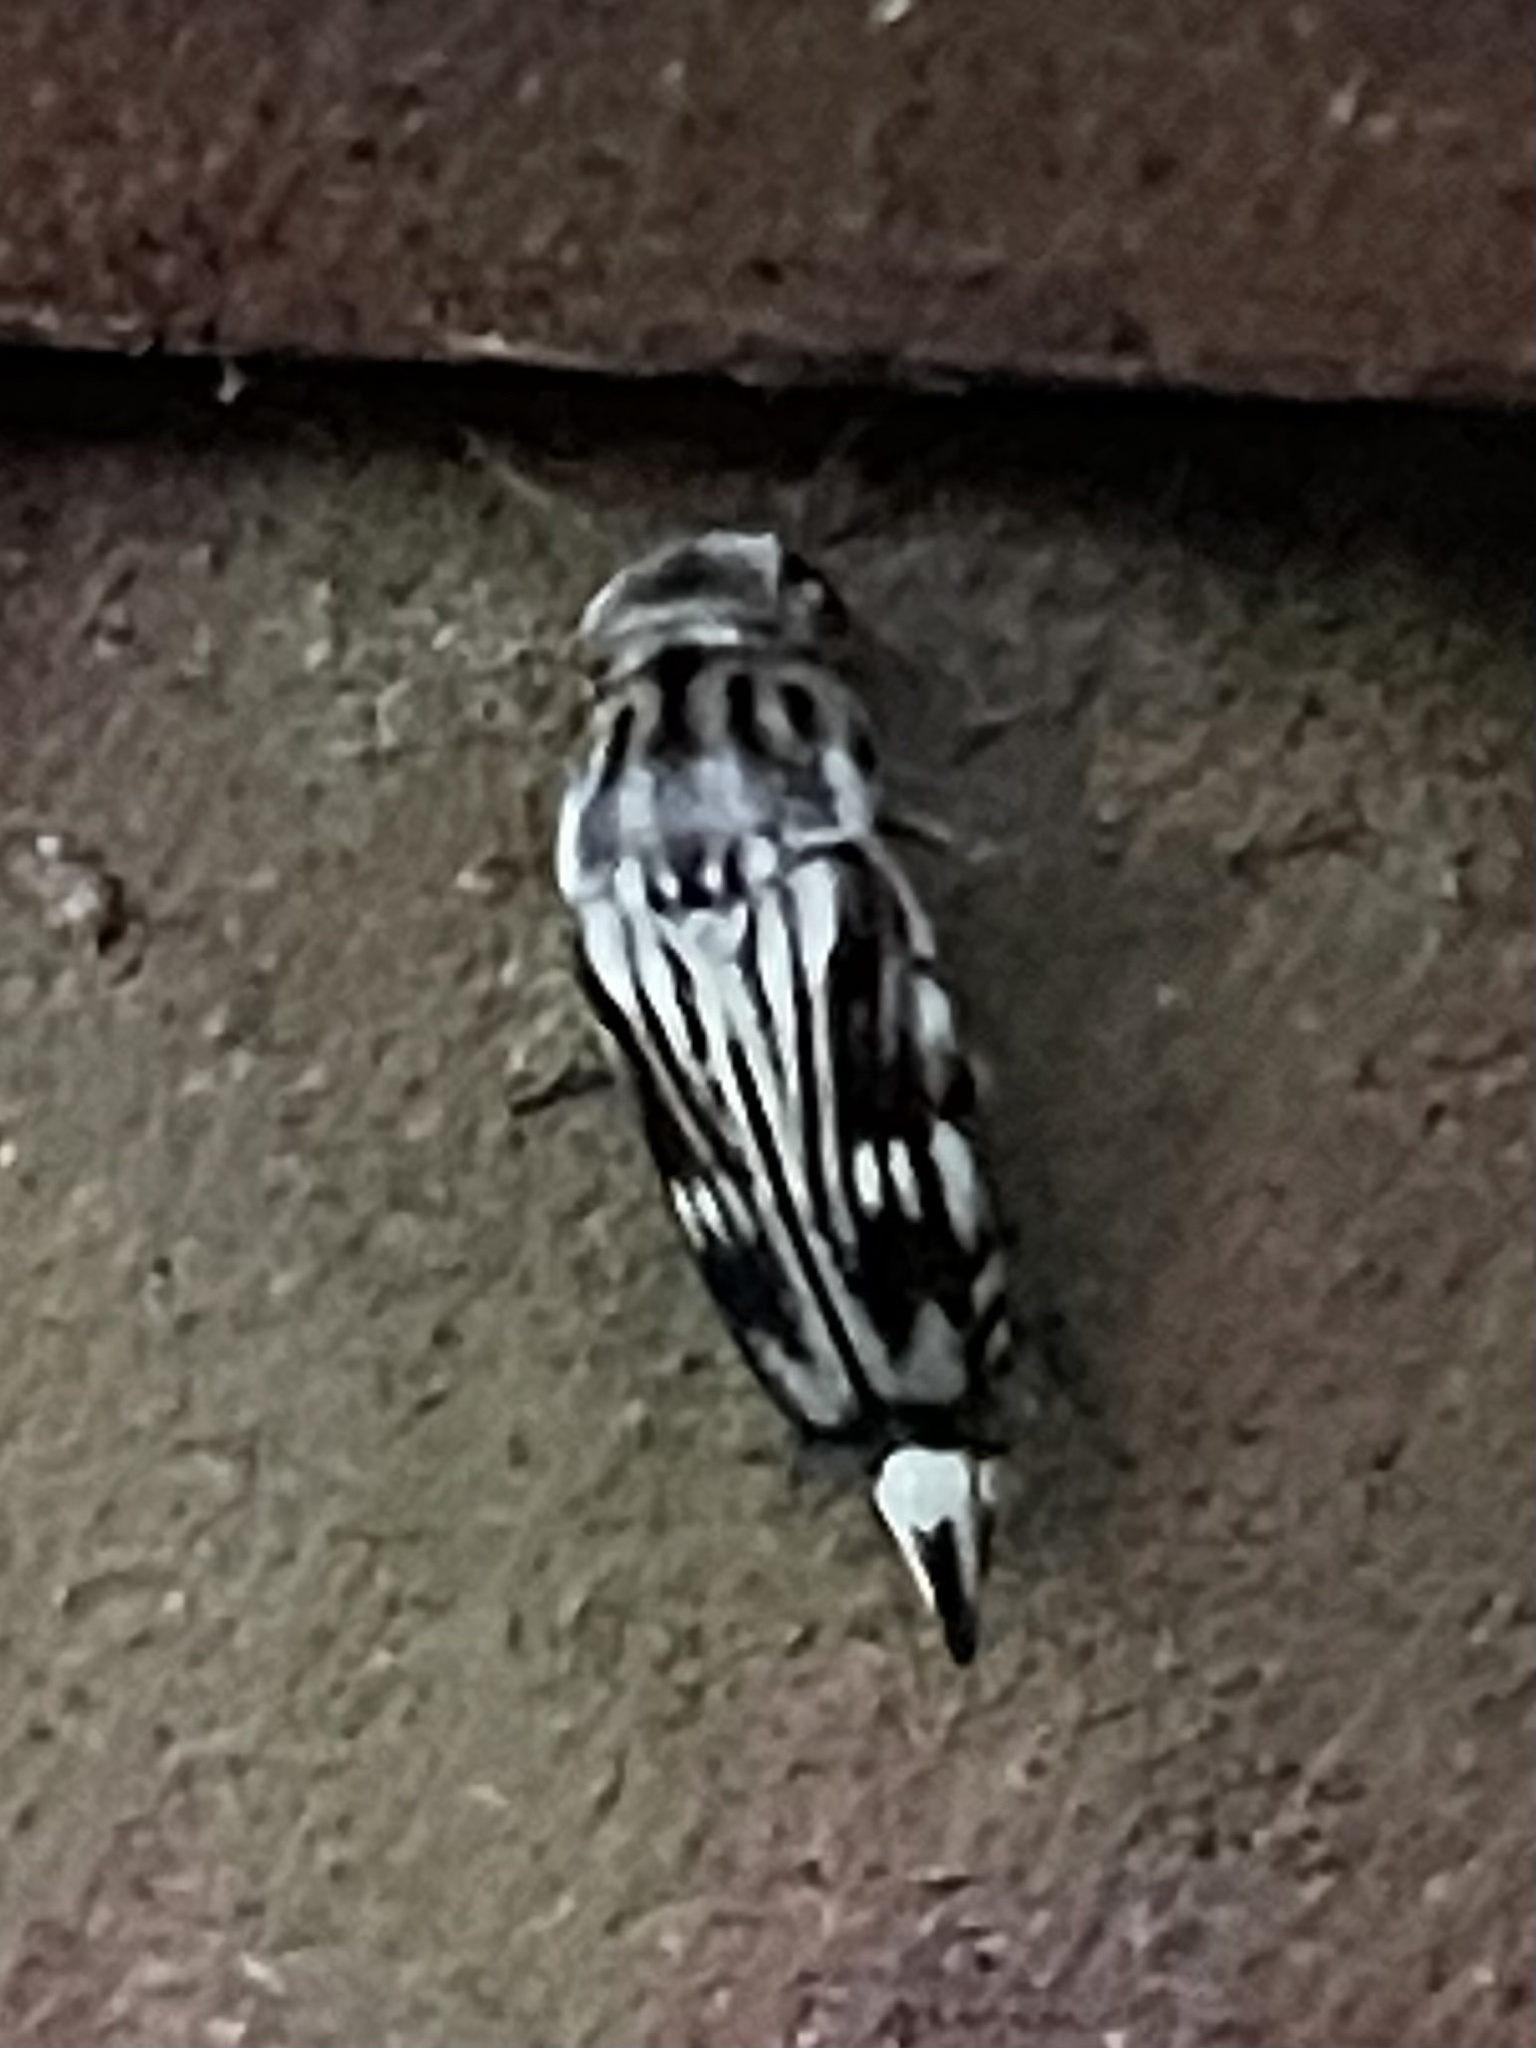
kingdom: Animalia
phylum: Arthropoda
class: Insecta
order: Coleoptera
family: Mordellidae
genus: Tomoxia
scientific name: Tomoxia lineella
